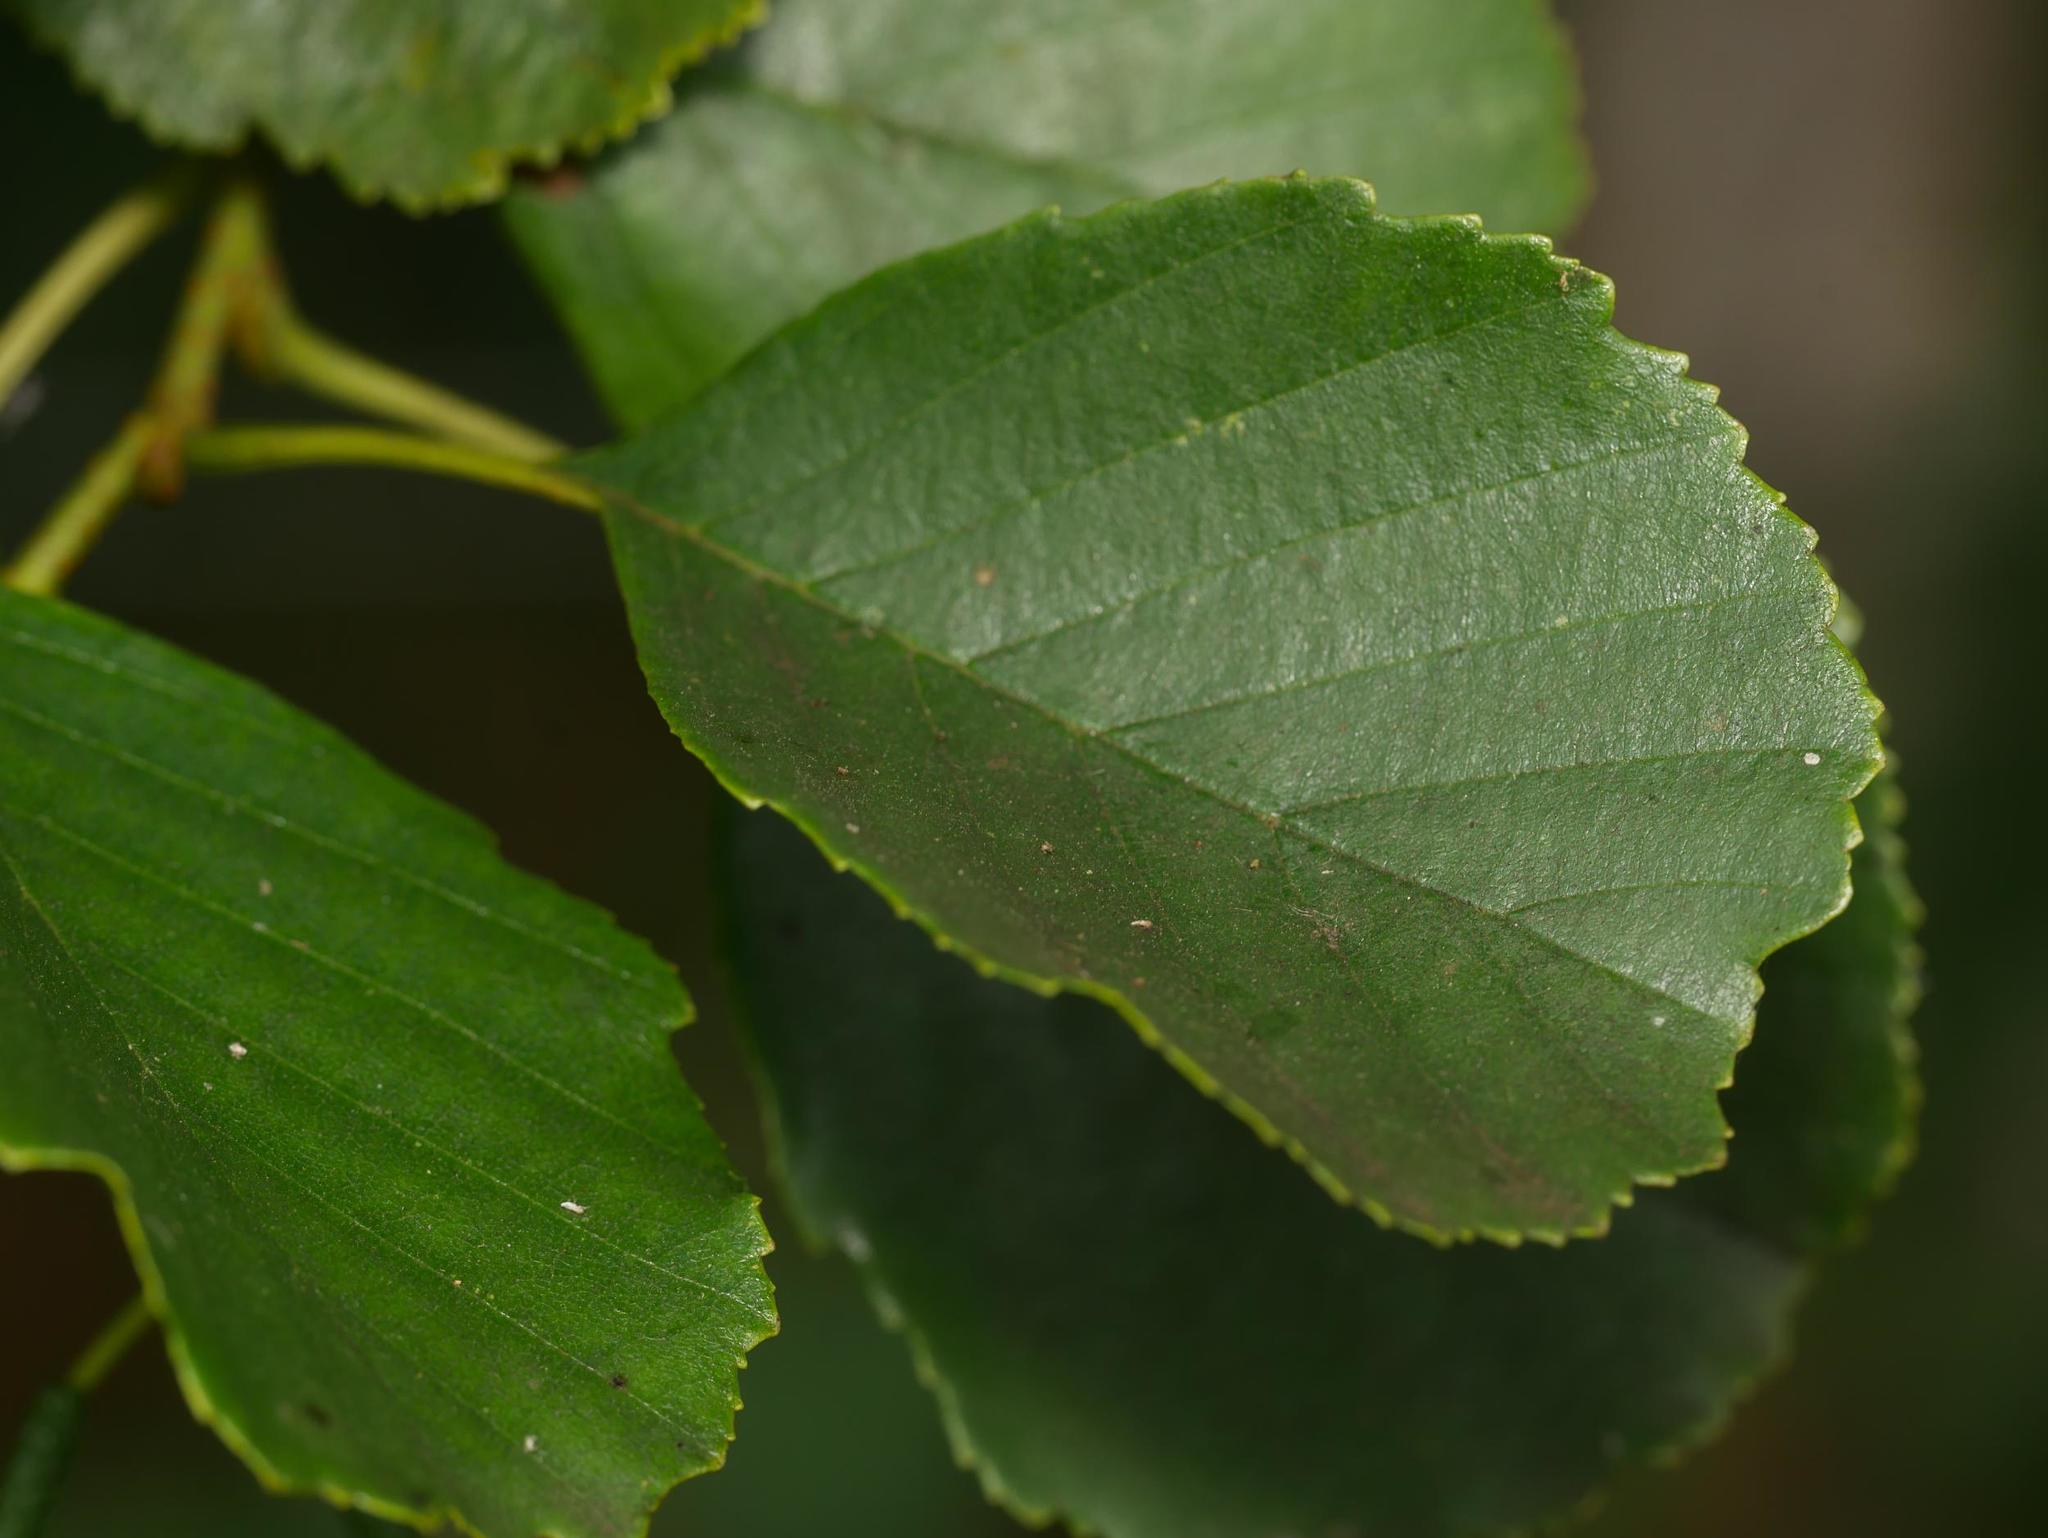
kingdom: Plantae
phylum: Tracheophyta
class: Magnoliopsida
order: Fagales
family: Betulaceae
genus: Alnus
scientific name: Alnus glutinosa
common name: Black alder
